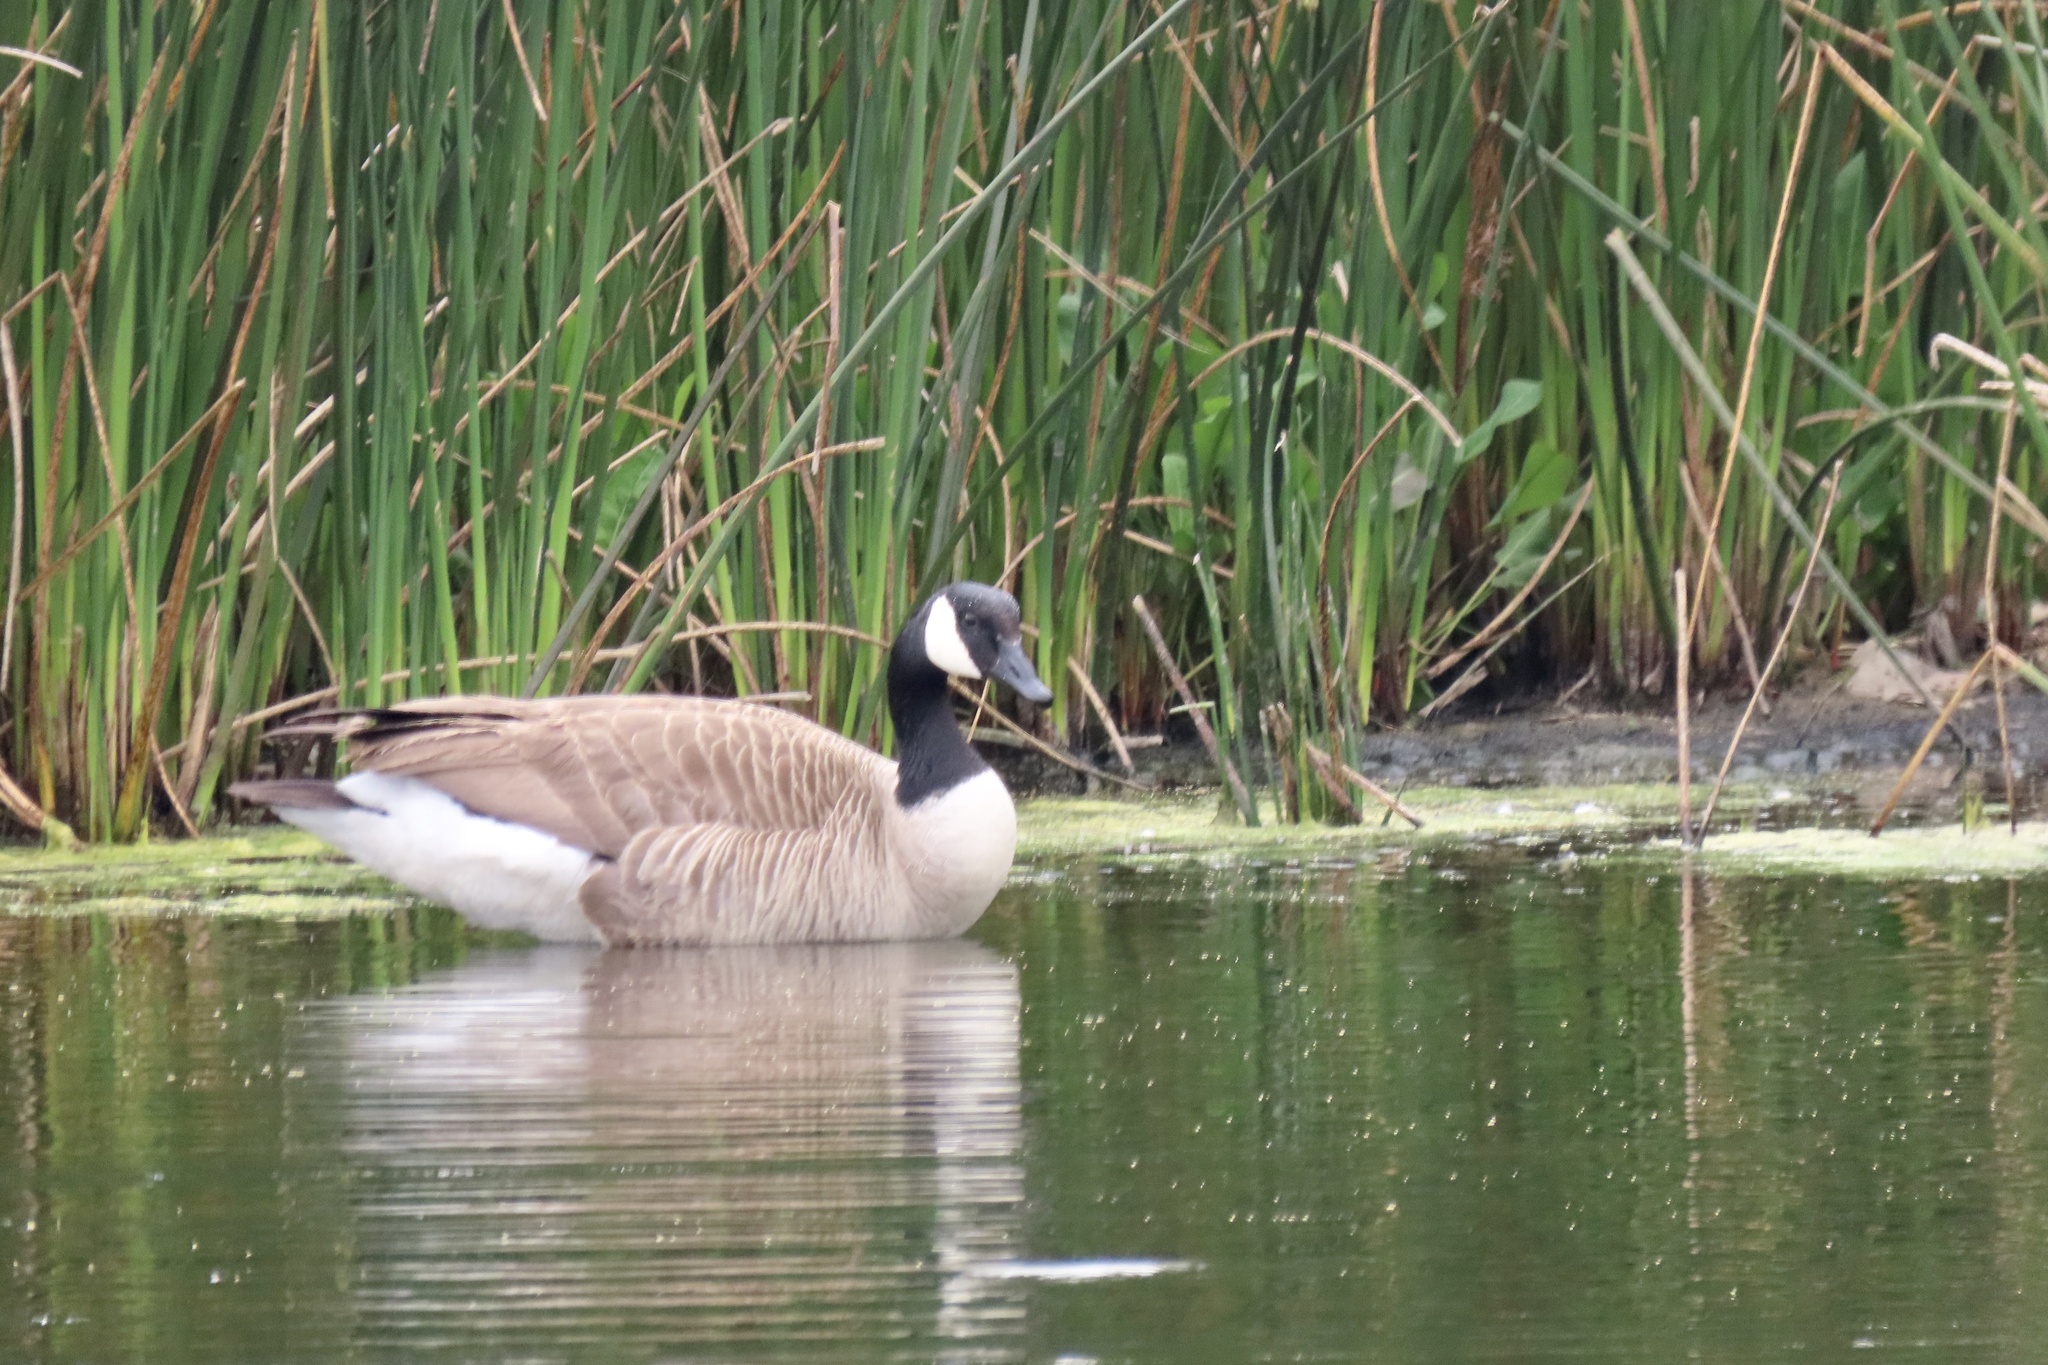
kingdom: Animalia
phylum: Chordata
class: Aves
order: Anseriformes
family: Anatidae
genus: Branta
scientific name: Branta canadensis
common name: Canada goose
